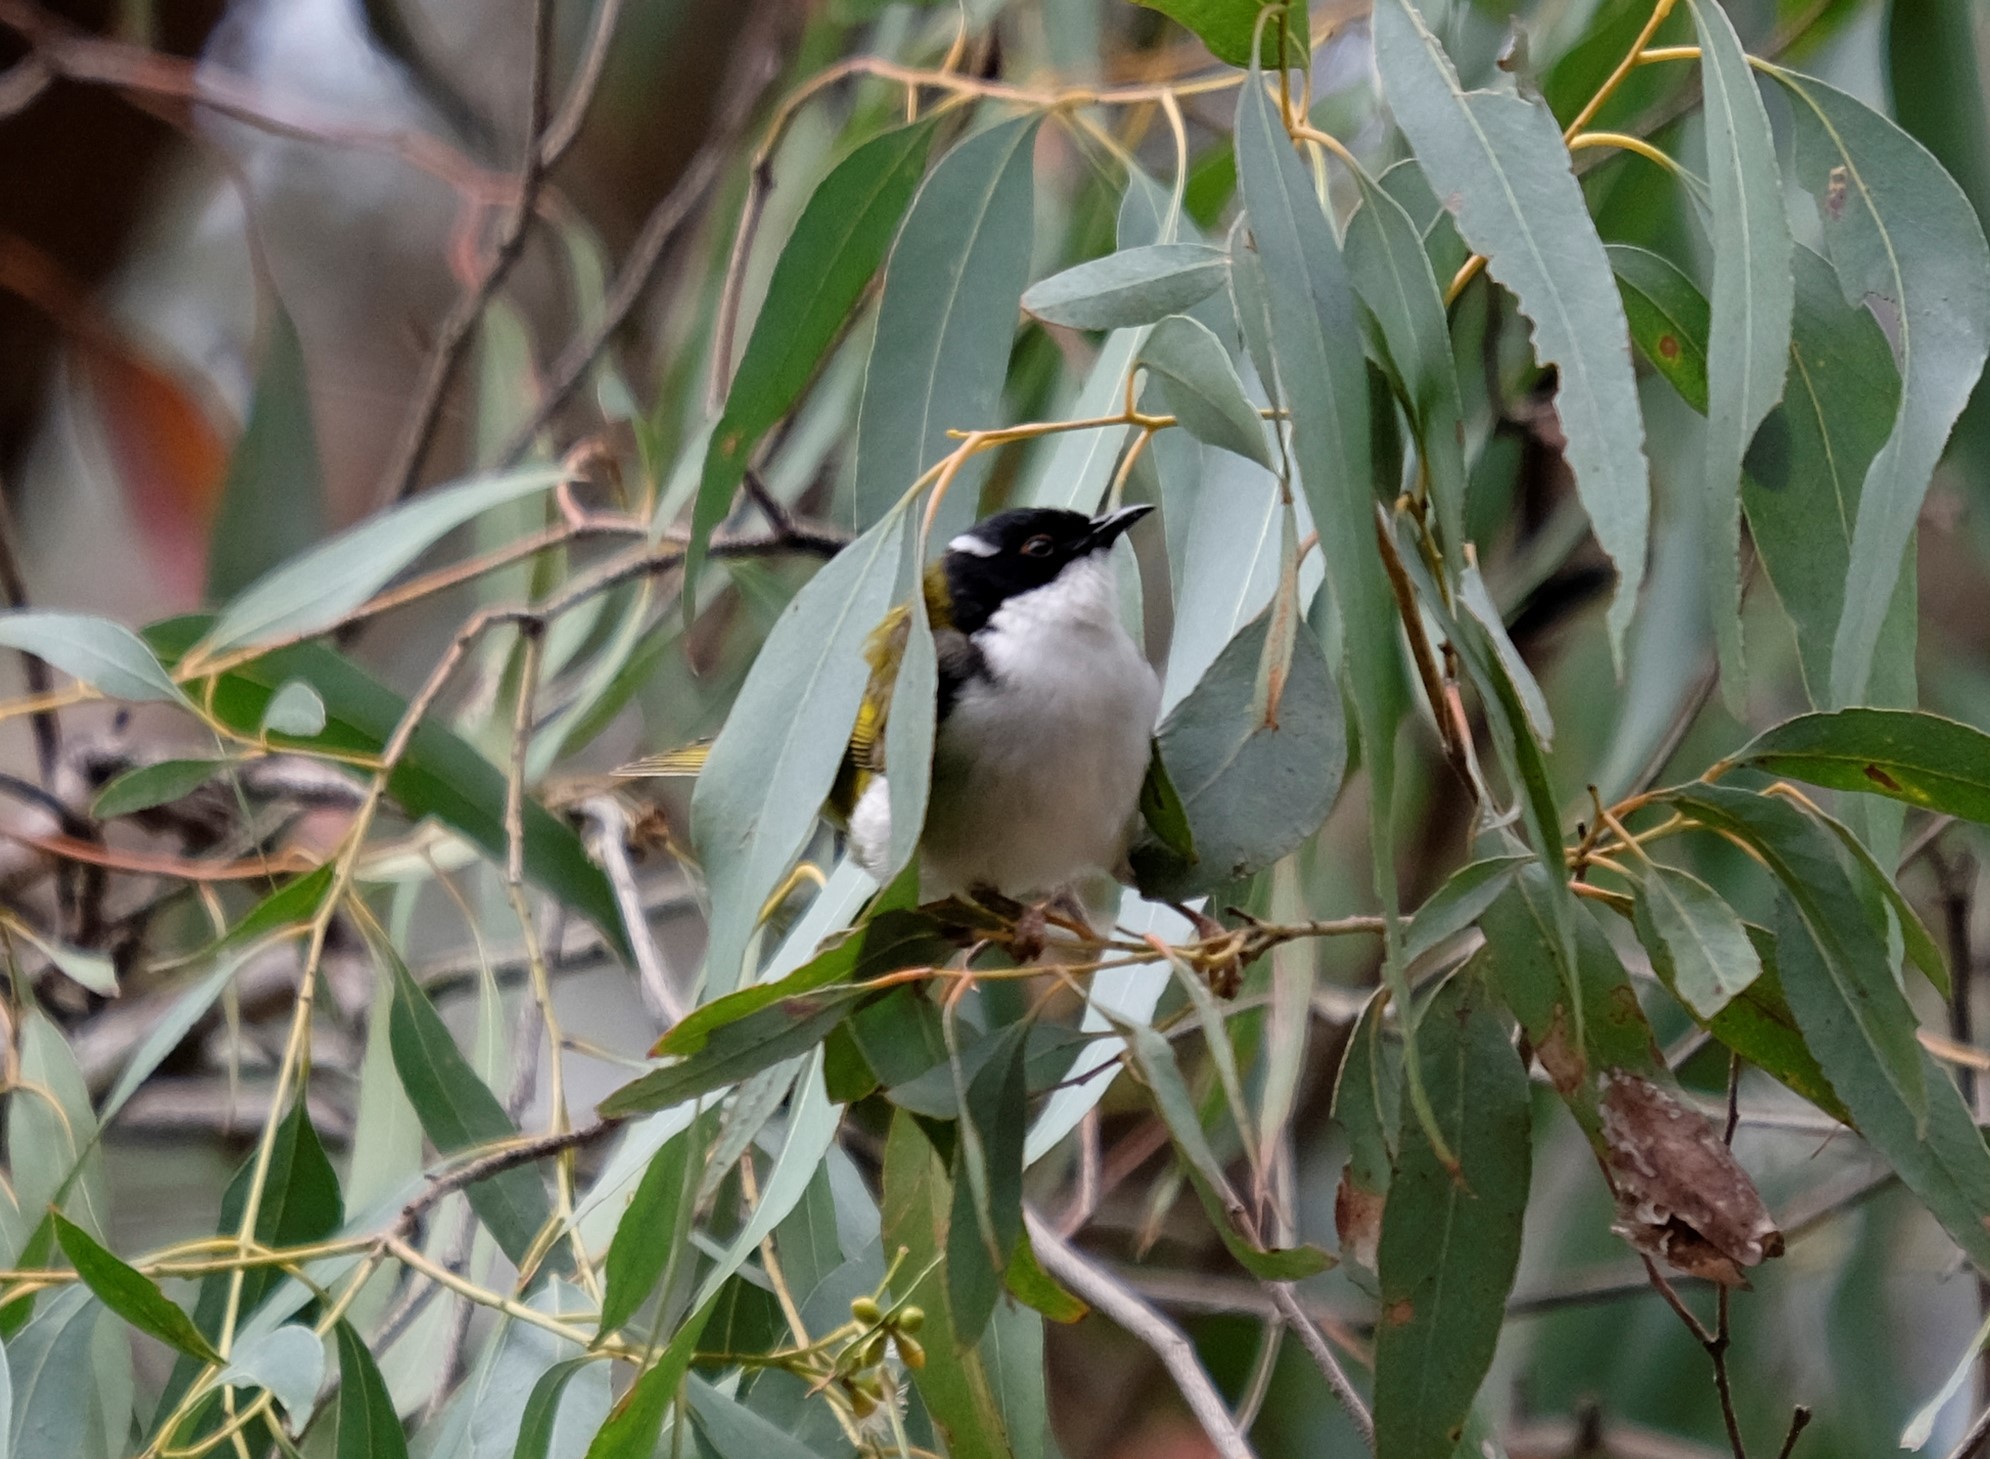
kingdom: Animalia
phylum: Chordata
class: Aves
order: Passeriformes
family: Meliphagidae
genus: Melithreptus
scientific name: Melithreptus lunatus
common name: White-naped honeyeater
